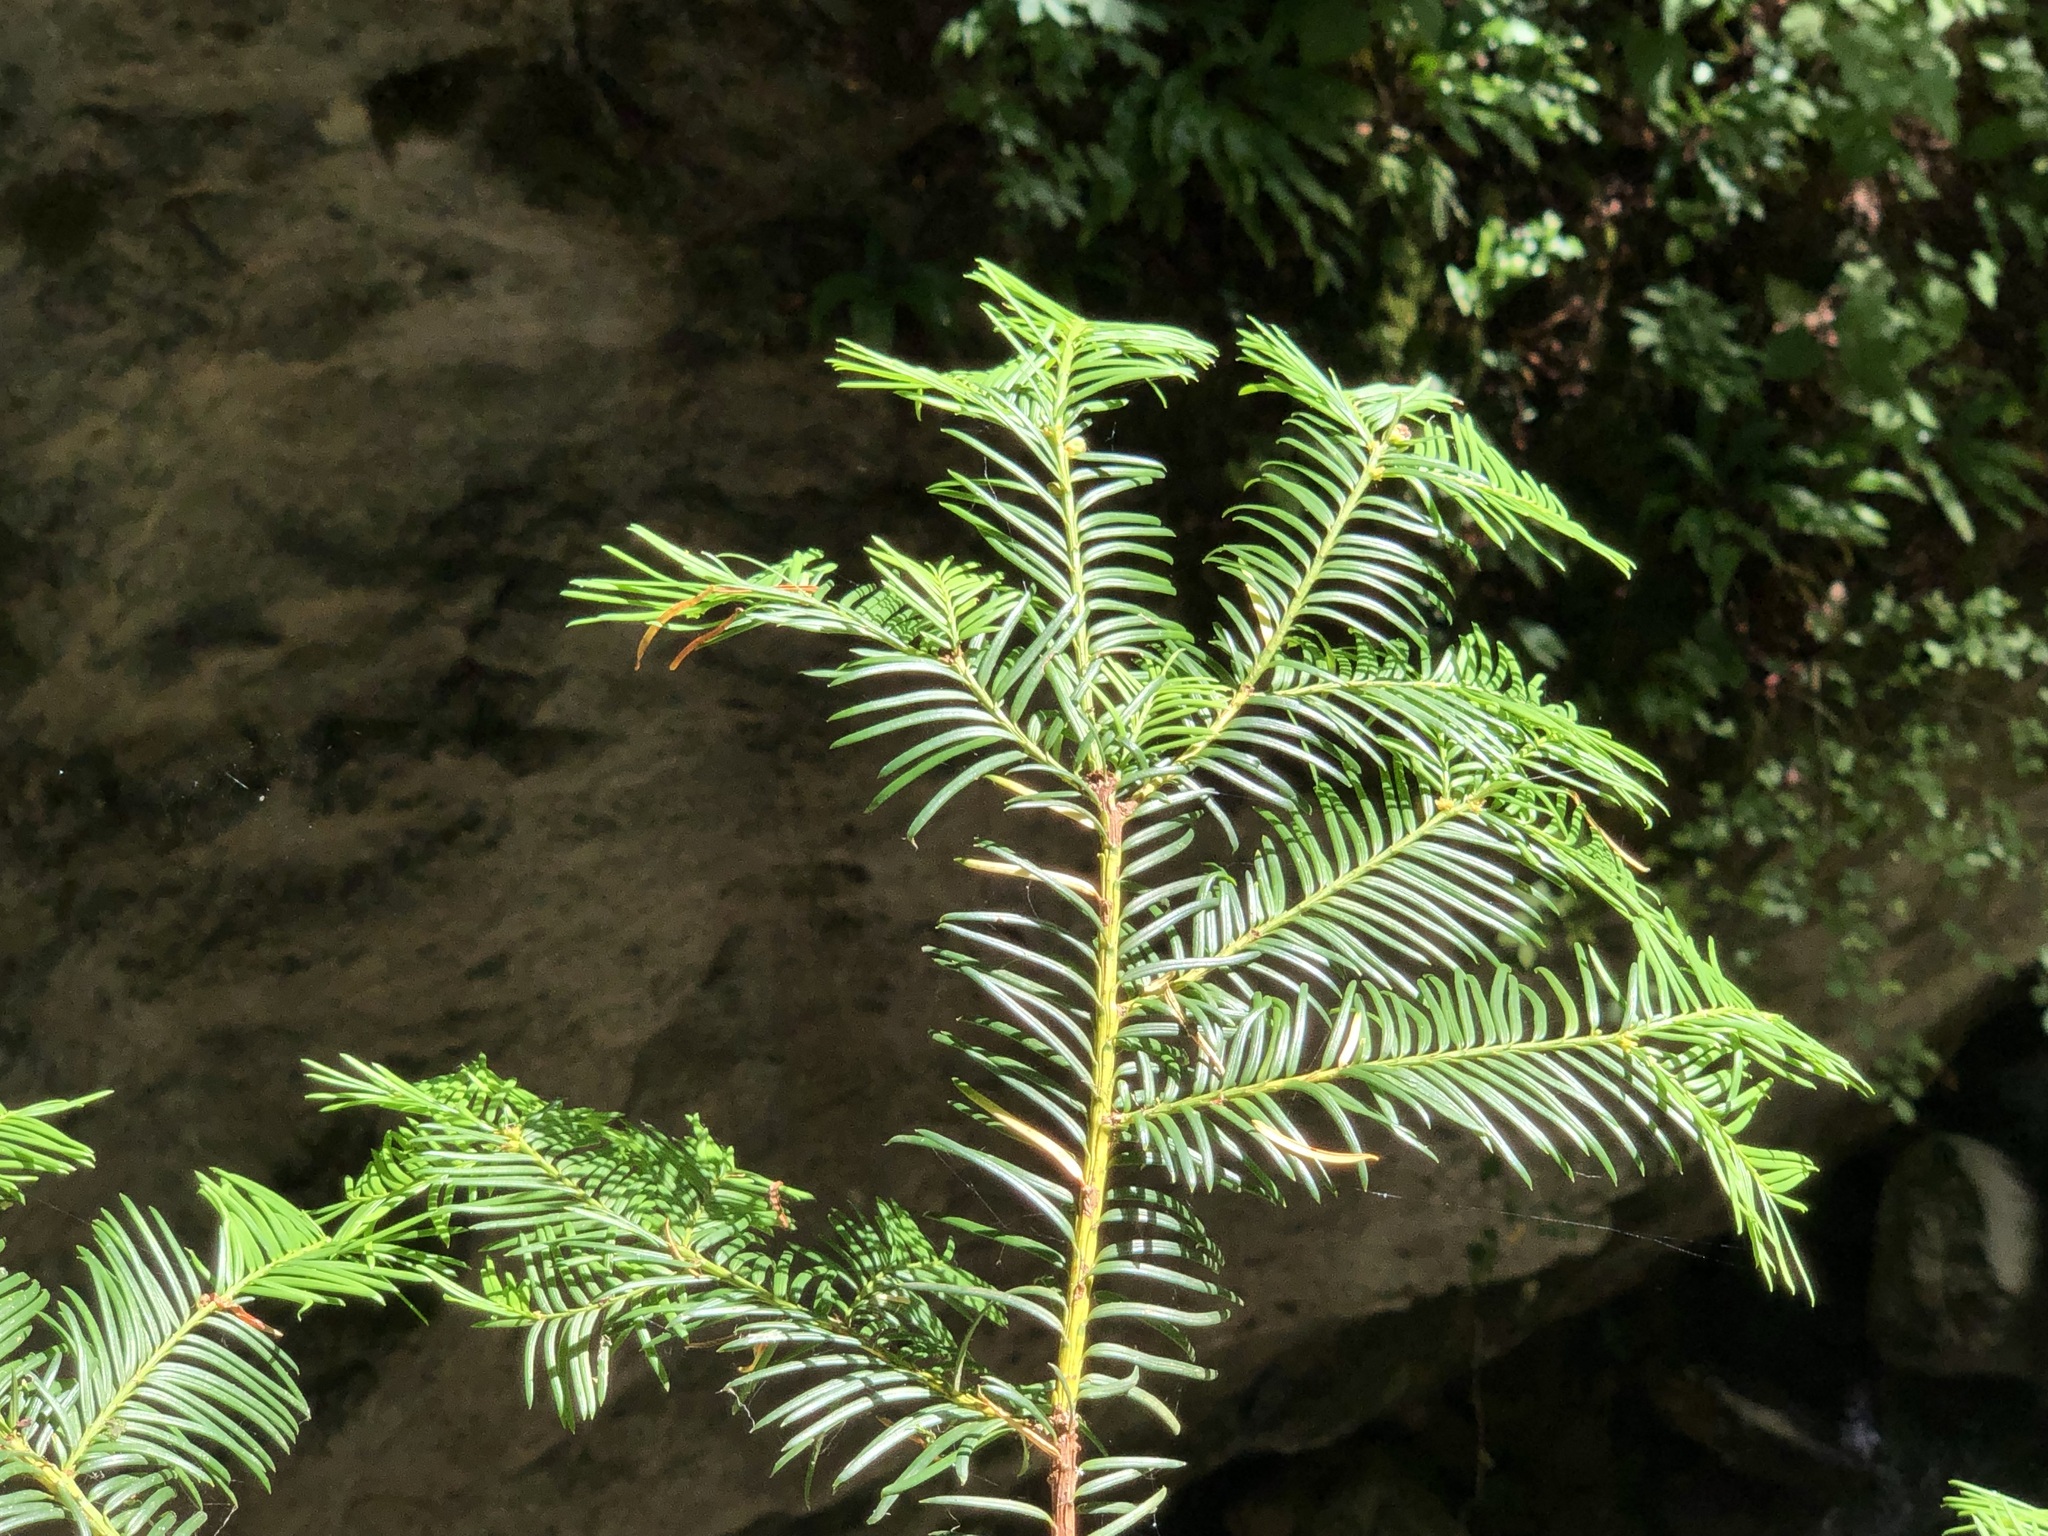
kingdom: Plantae
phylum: Tracheophyta
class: Pinopsida
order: Pinales
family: Taxaceae
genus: Taxus
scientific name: Taxus baccata
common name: Yew
